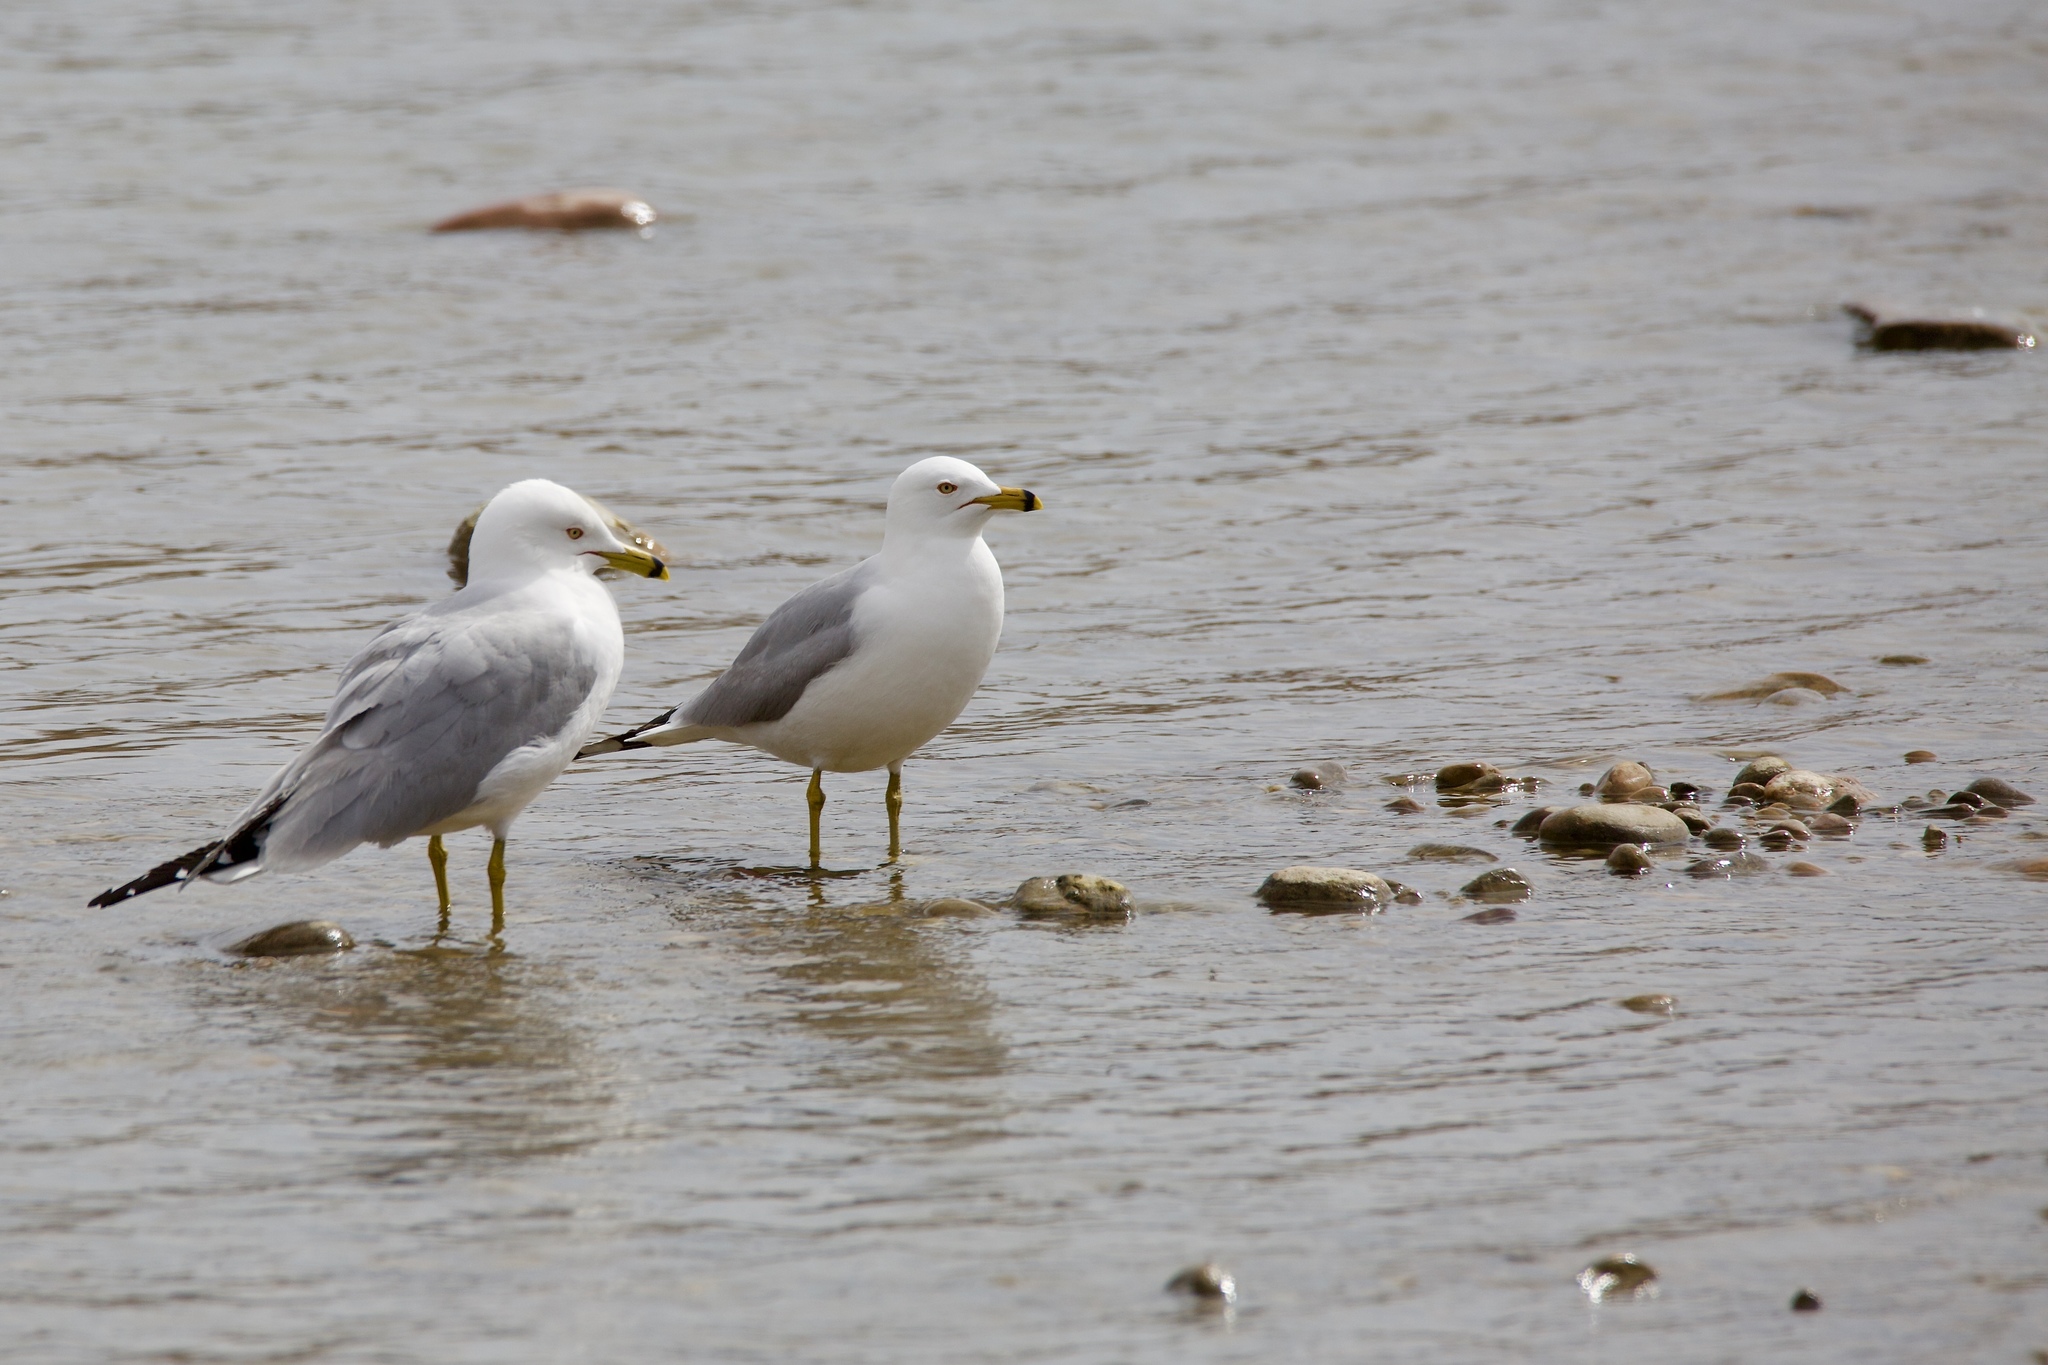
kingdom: Animalia
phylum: Chordata
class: Aves
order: Charadriiformes
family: Laridae
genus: Larus
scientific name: Larus delawarensis
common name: Ring-billed gull
